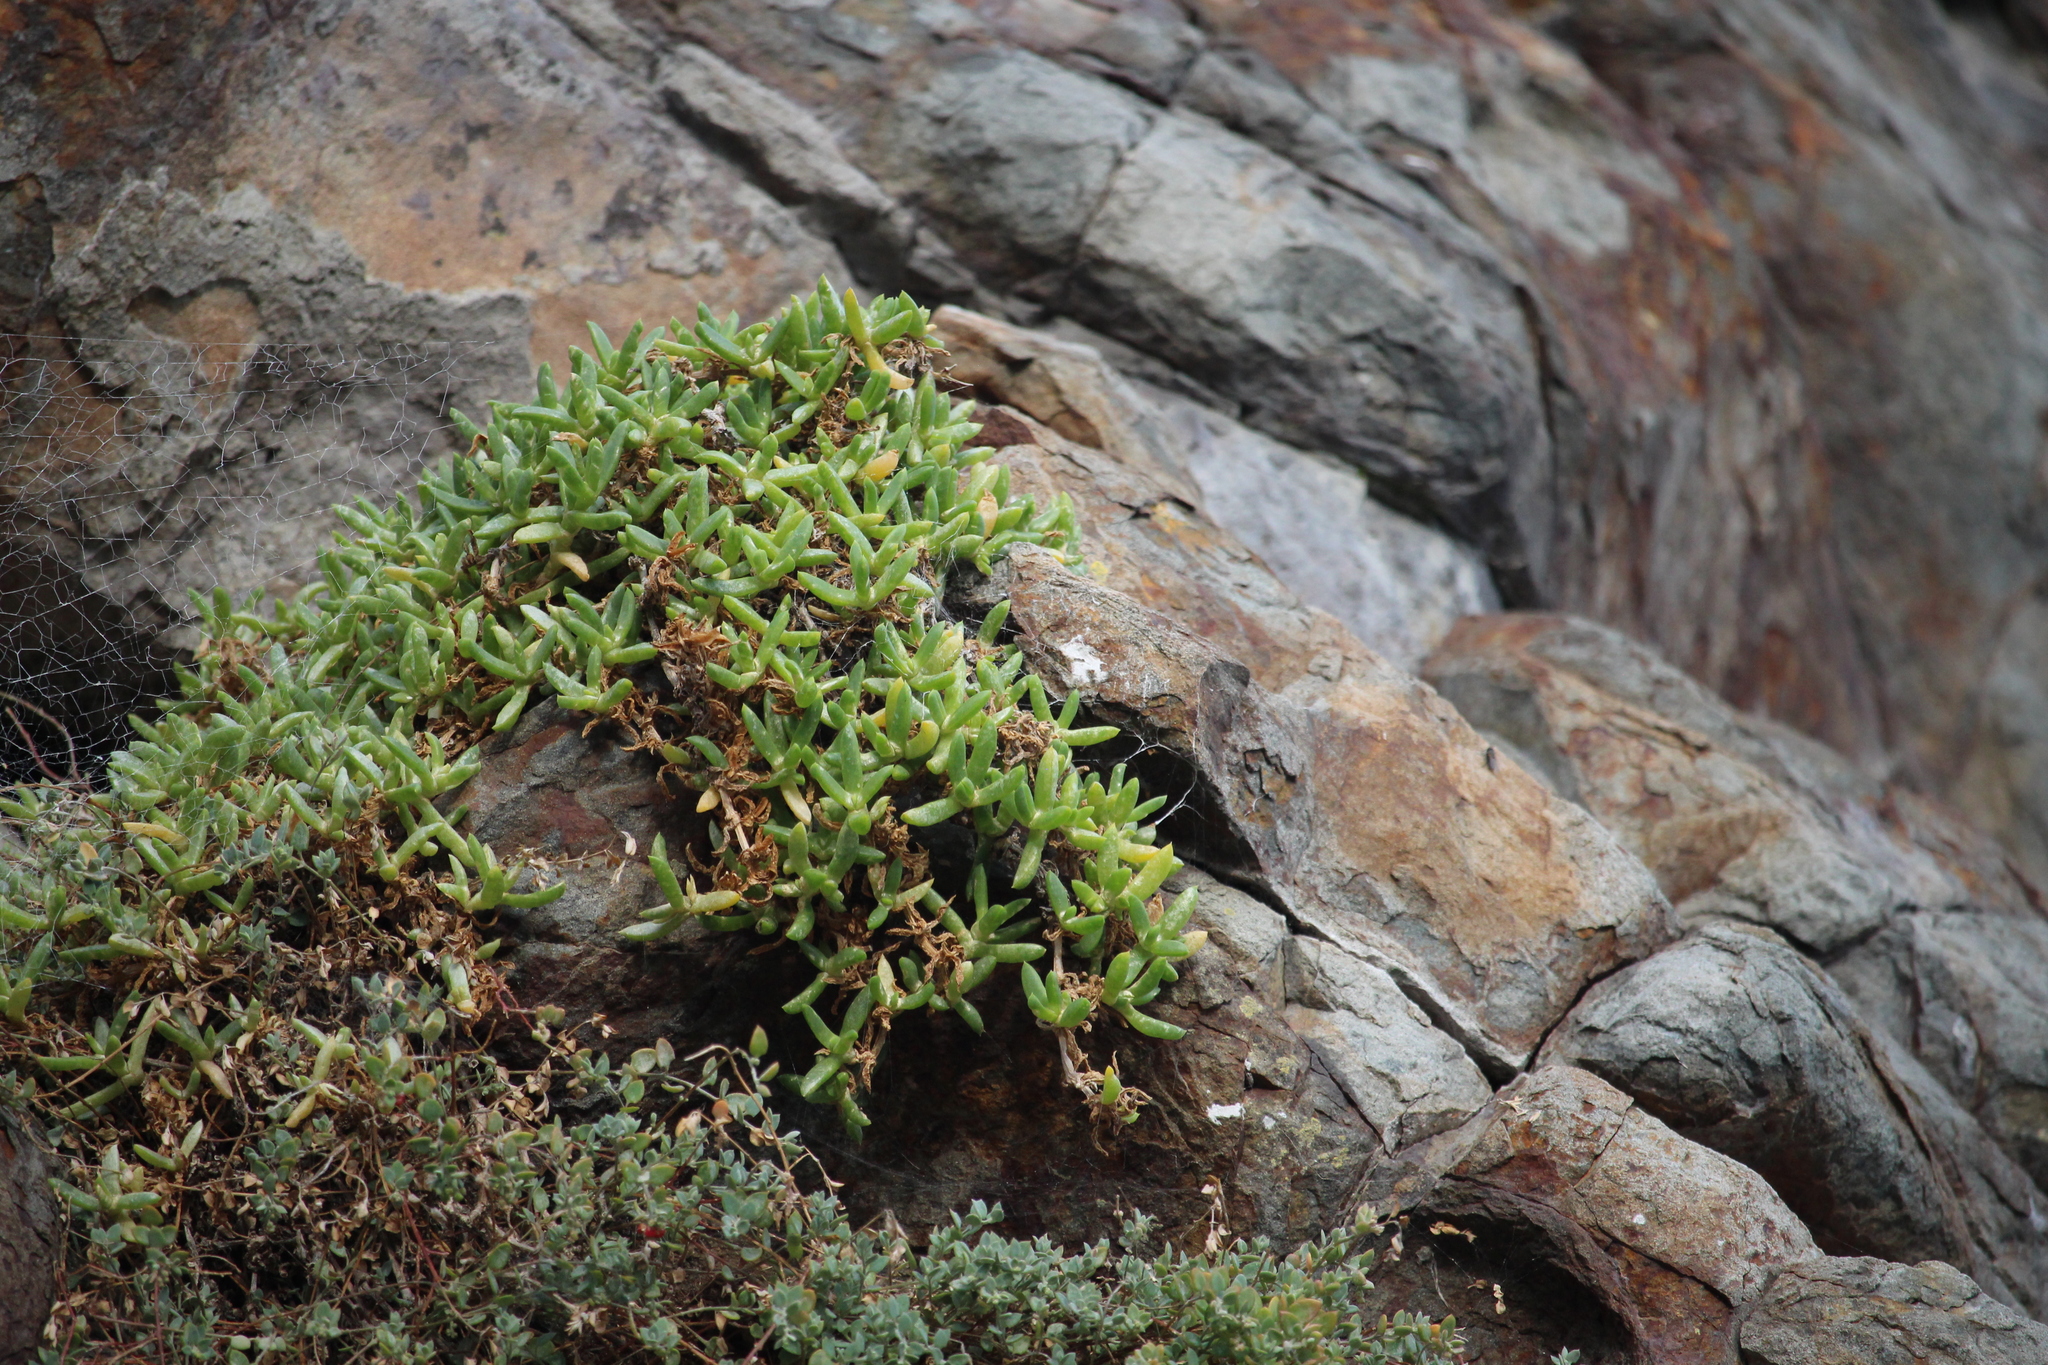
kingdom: Plantae
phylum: Tracheophyta
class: Magnoliopsida
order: Caryophyllales
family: Aizoaceae
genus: Disphyma
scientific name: Disphyma australe
